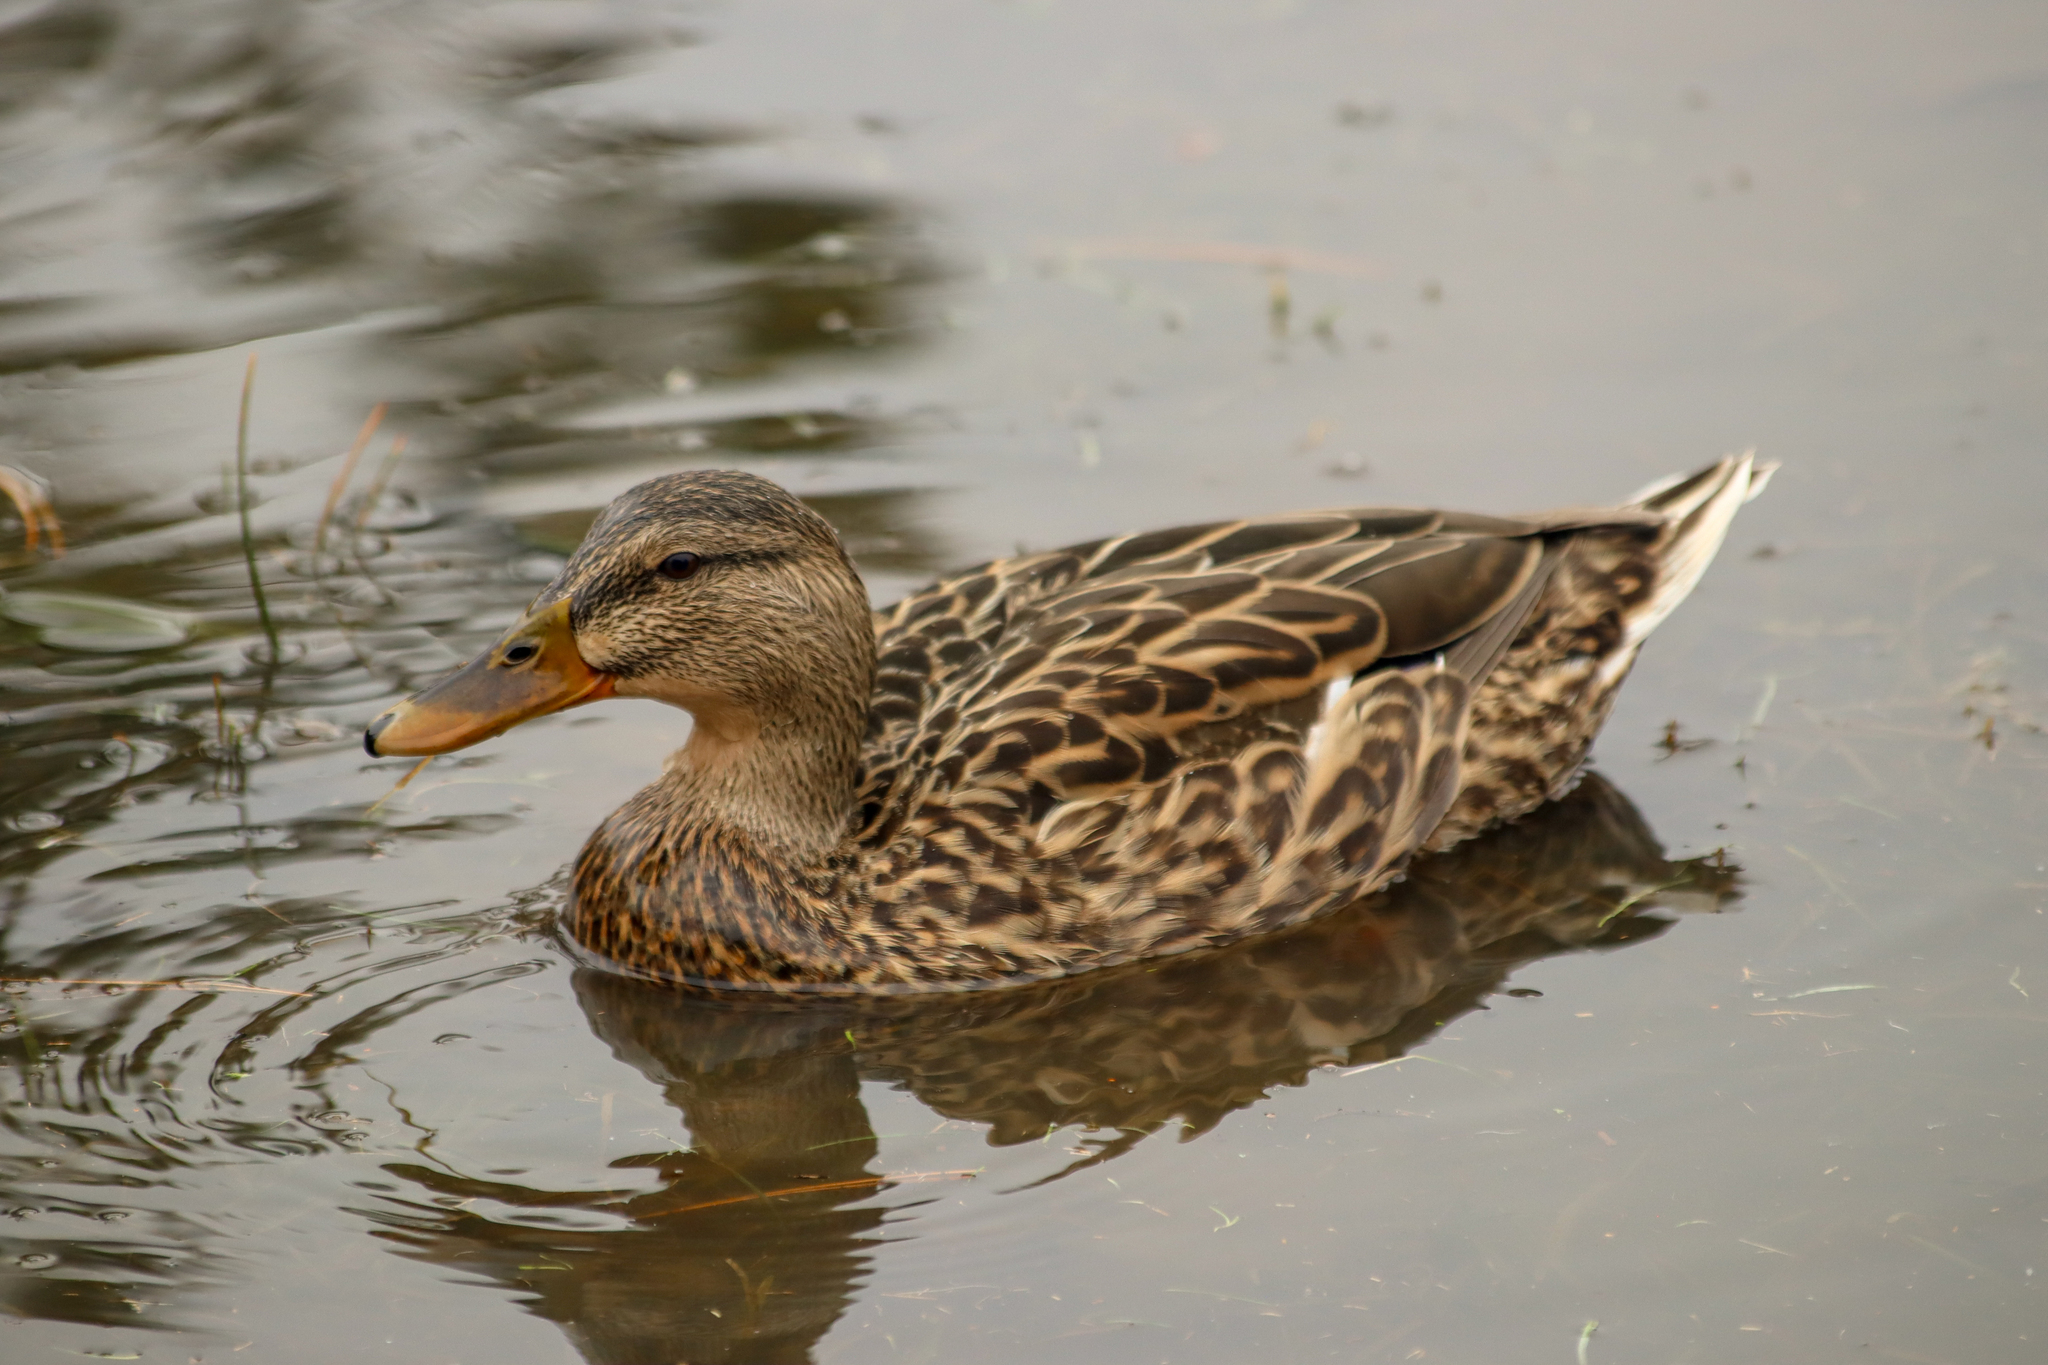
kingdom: Animalia
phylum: Chordata
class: Aves
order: Anseriformes
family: Anatidae
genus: Anas
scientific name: Anas platyrhynchos
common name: Mallard
